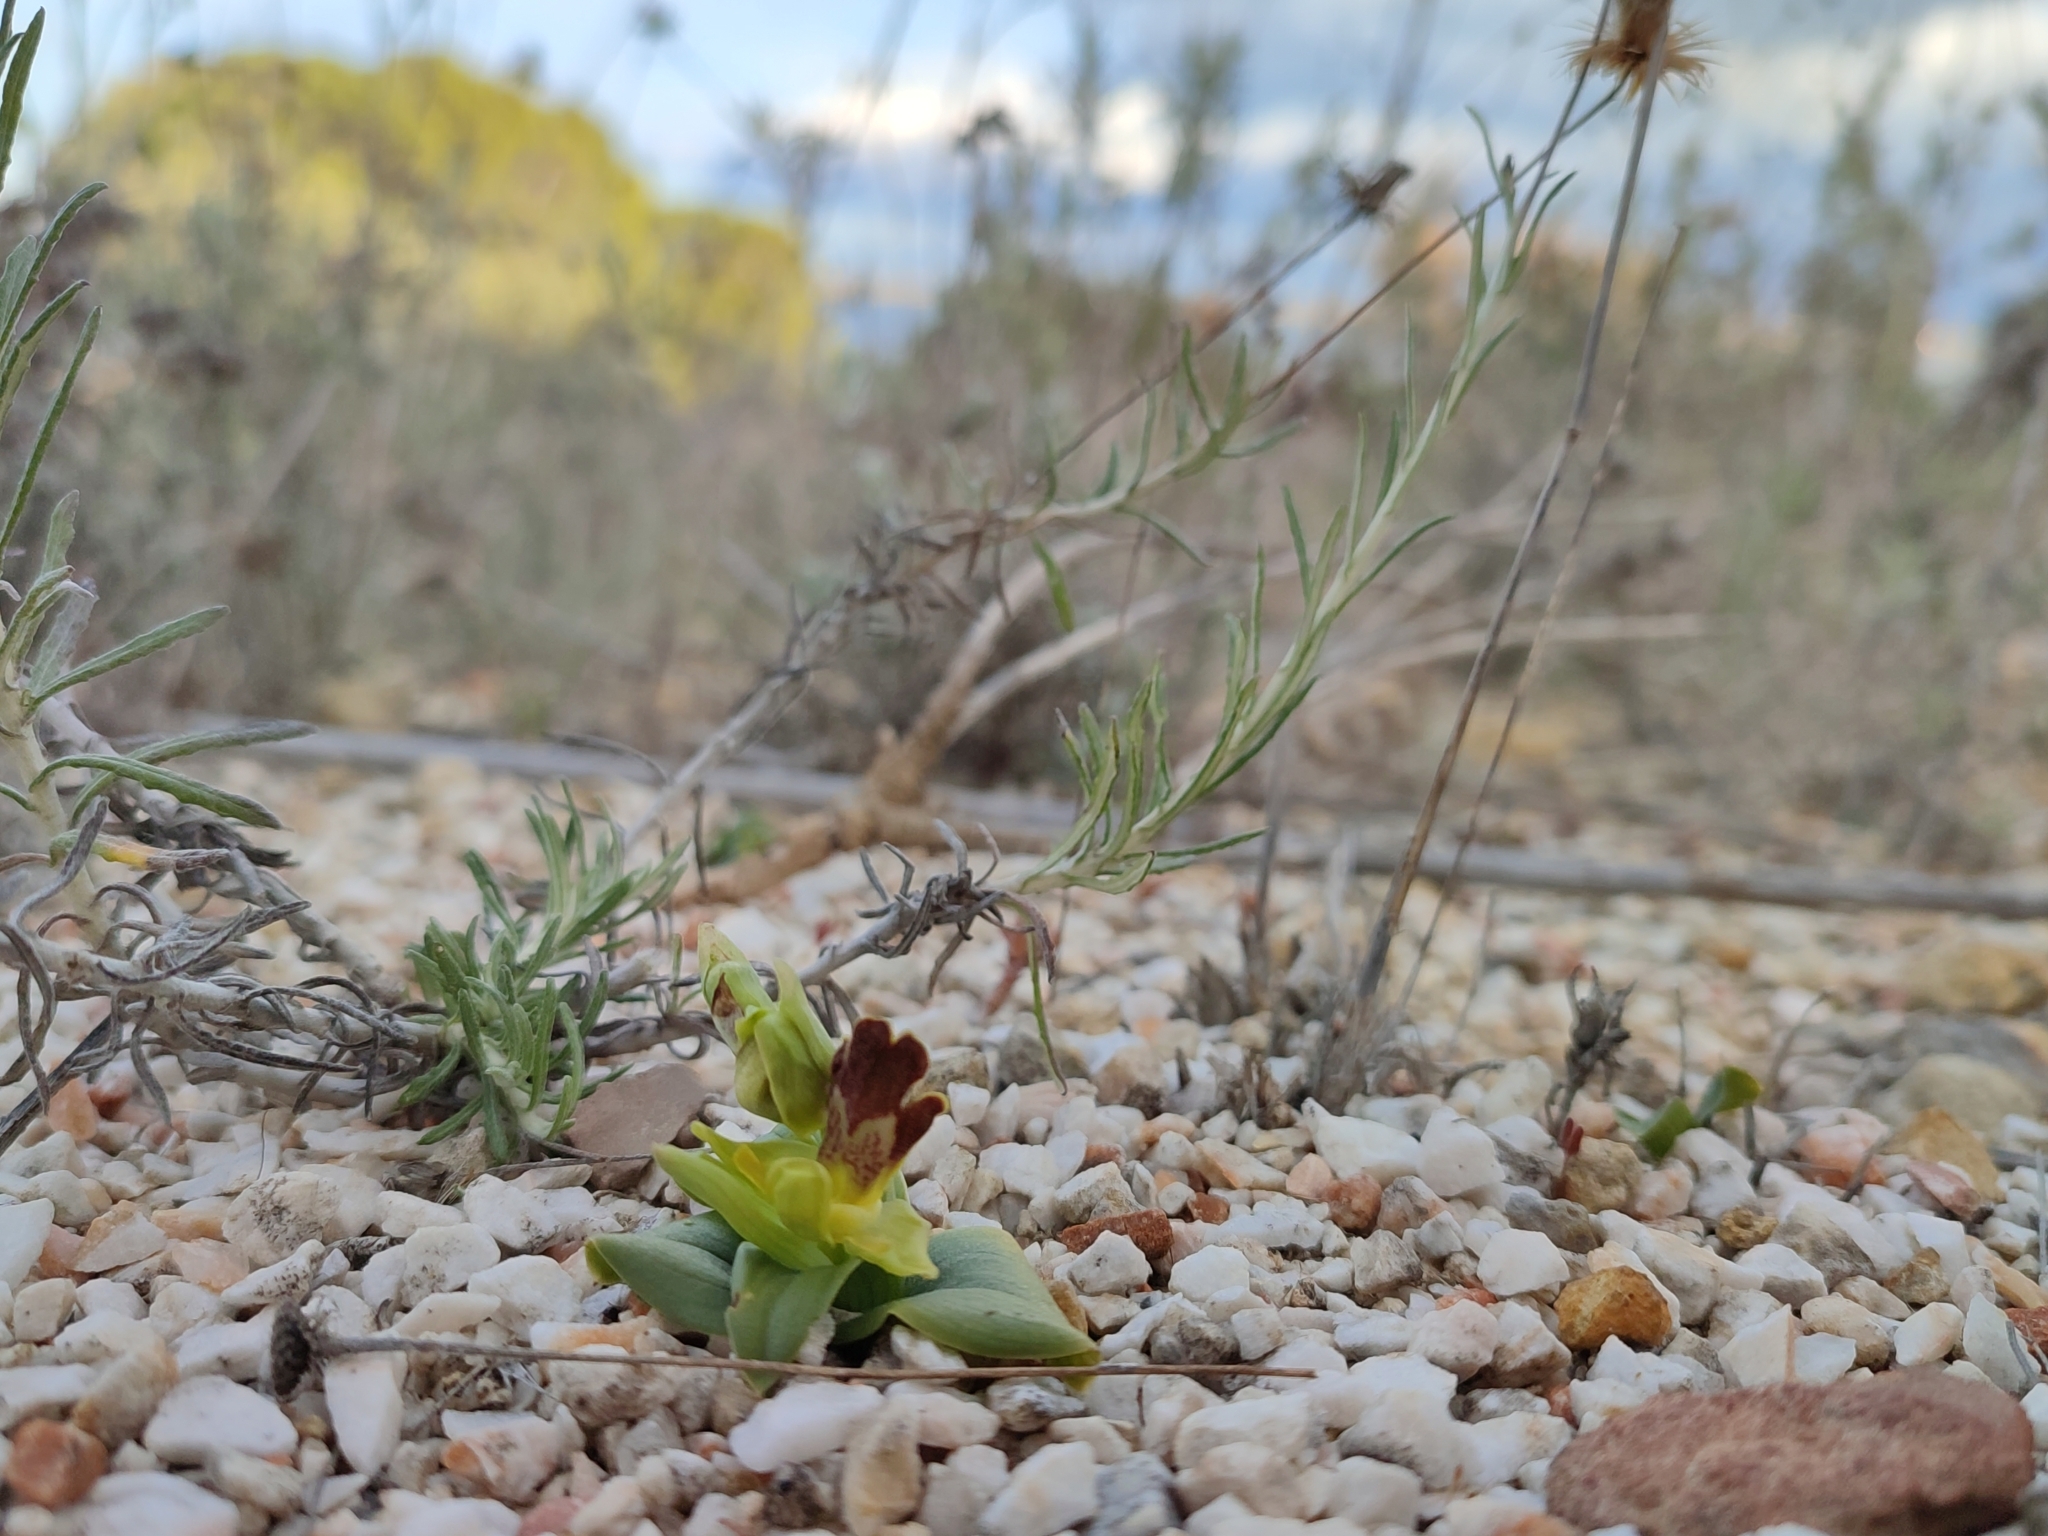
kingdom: Plantae
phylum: Tracheophyta
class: Liliopsida
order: Asparagales
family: Orchidaceae
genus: Ophrys
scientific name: Ophrys fusca
